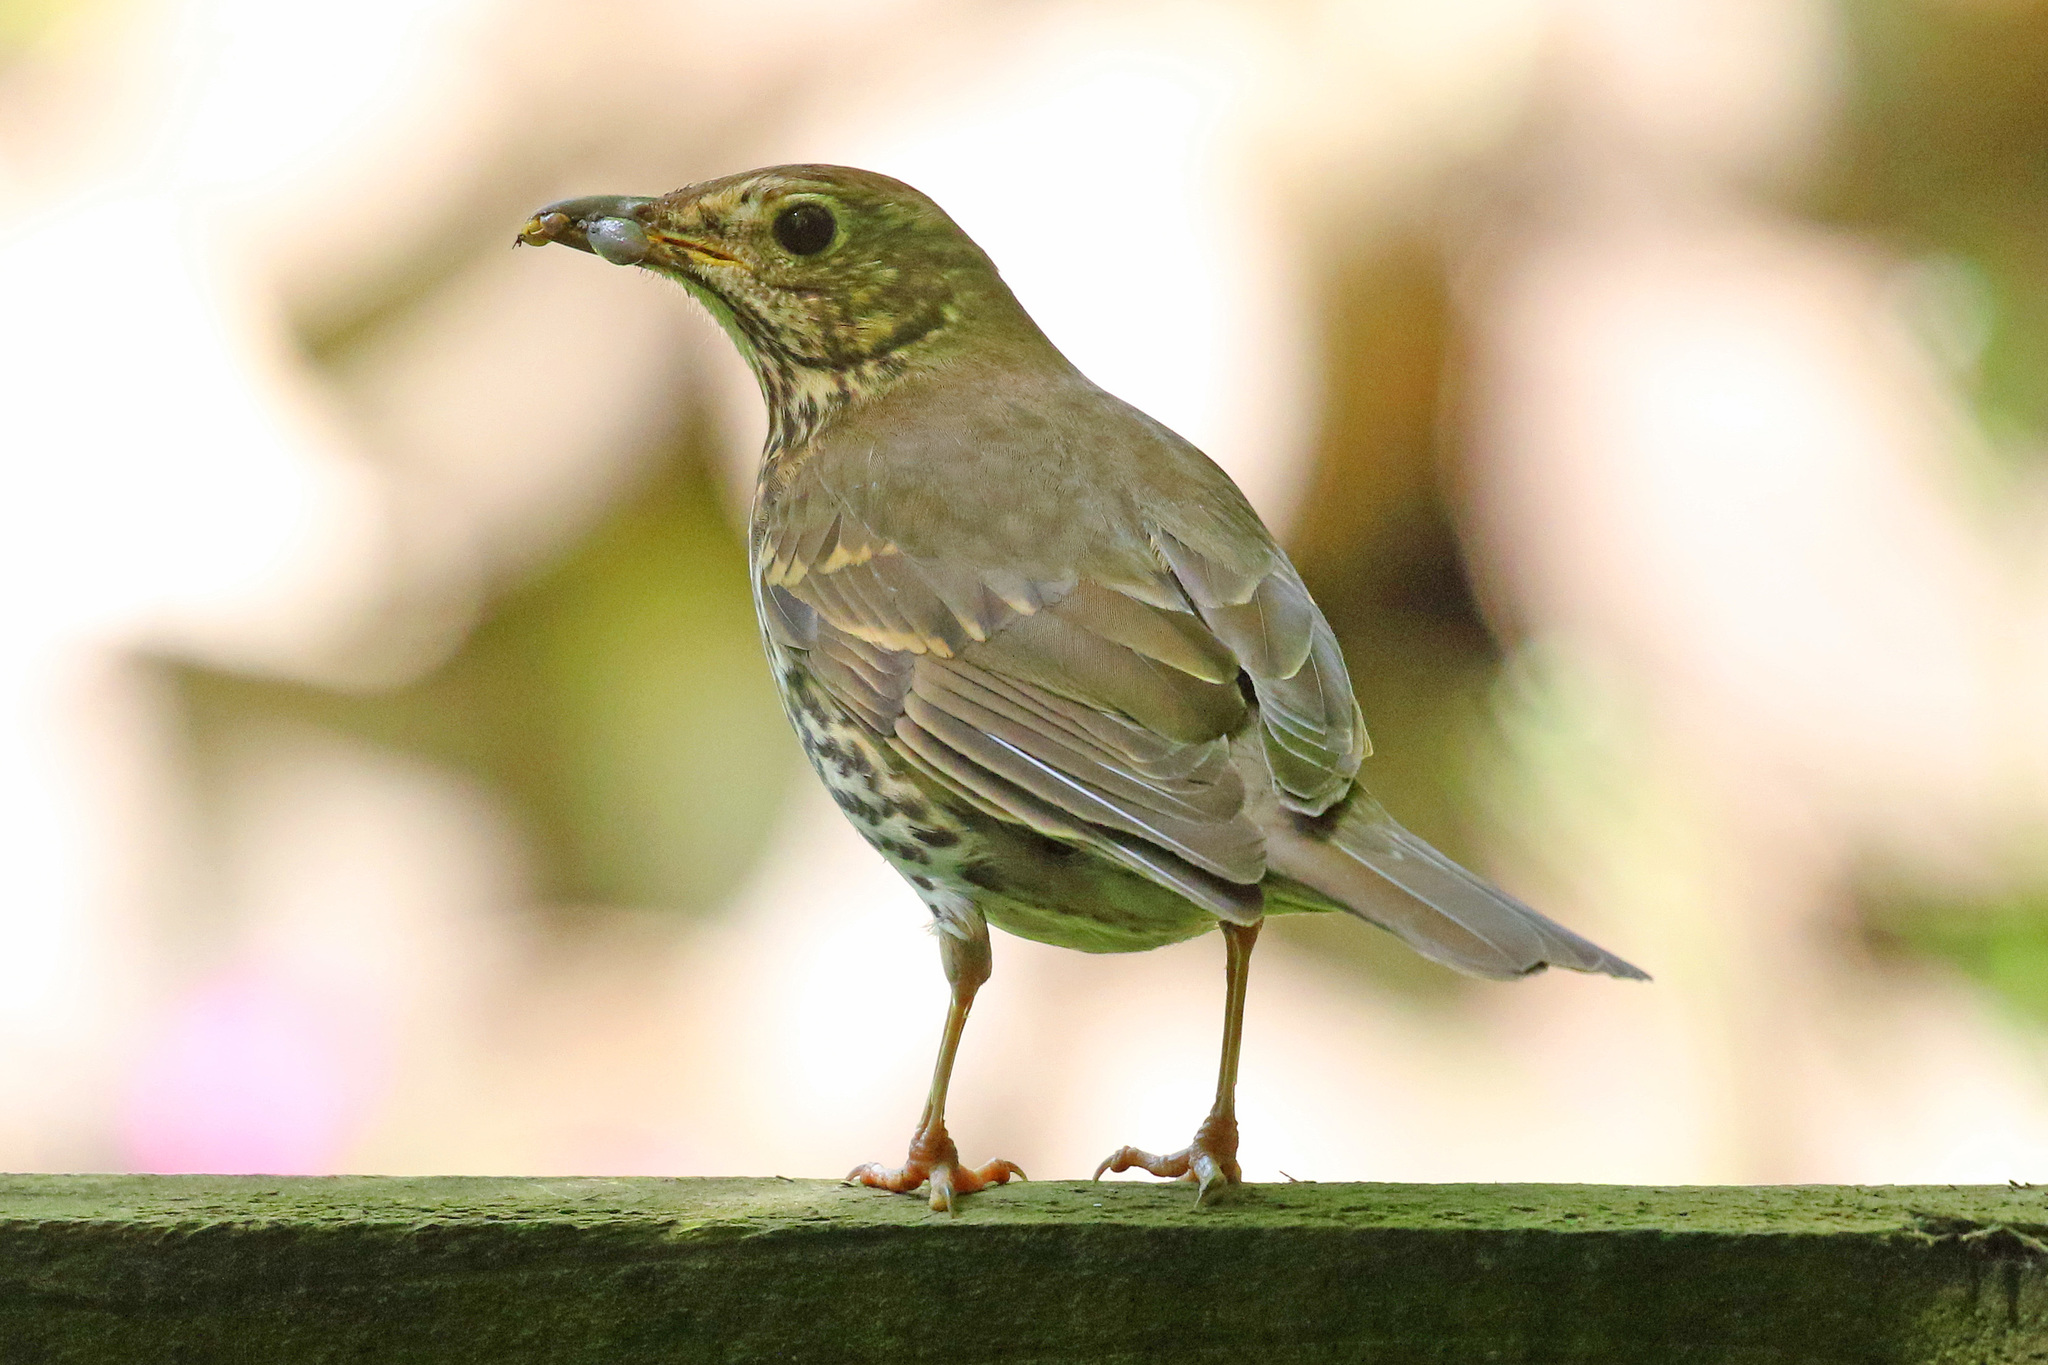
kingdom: Animalia
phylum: Chordata
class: Aves
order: Passeriformes
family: Turdidae
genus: Turdus
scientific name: Turdus philomelos
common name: Song thrush
